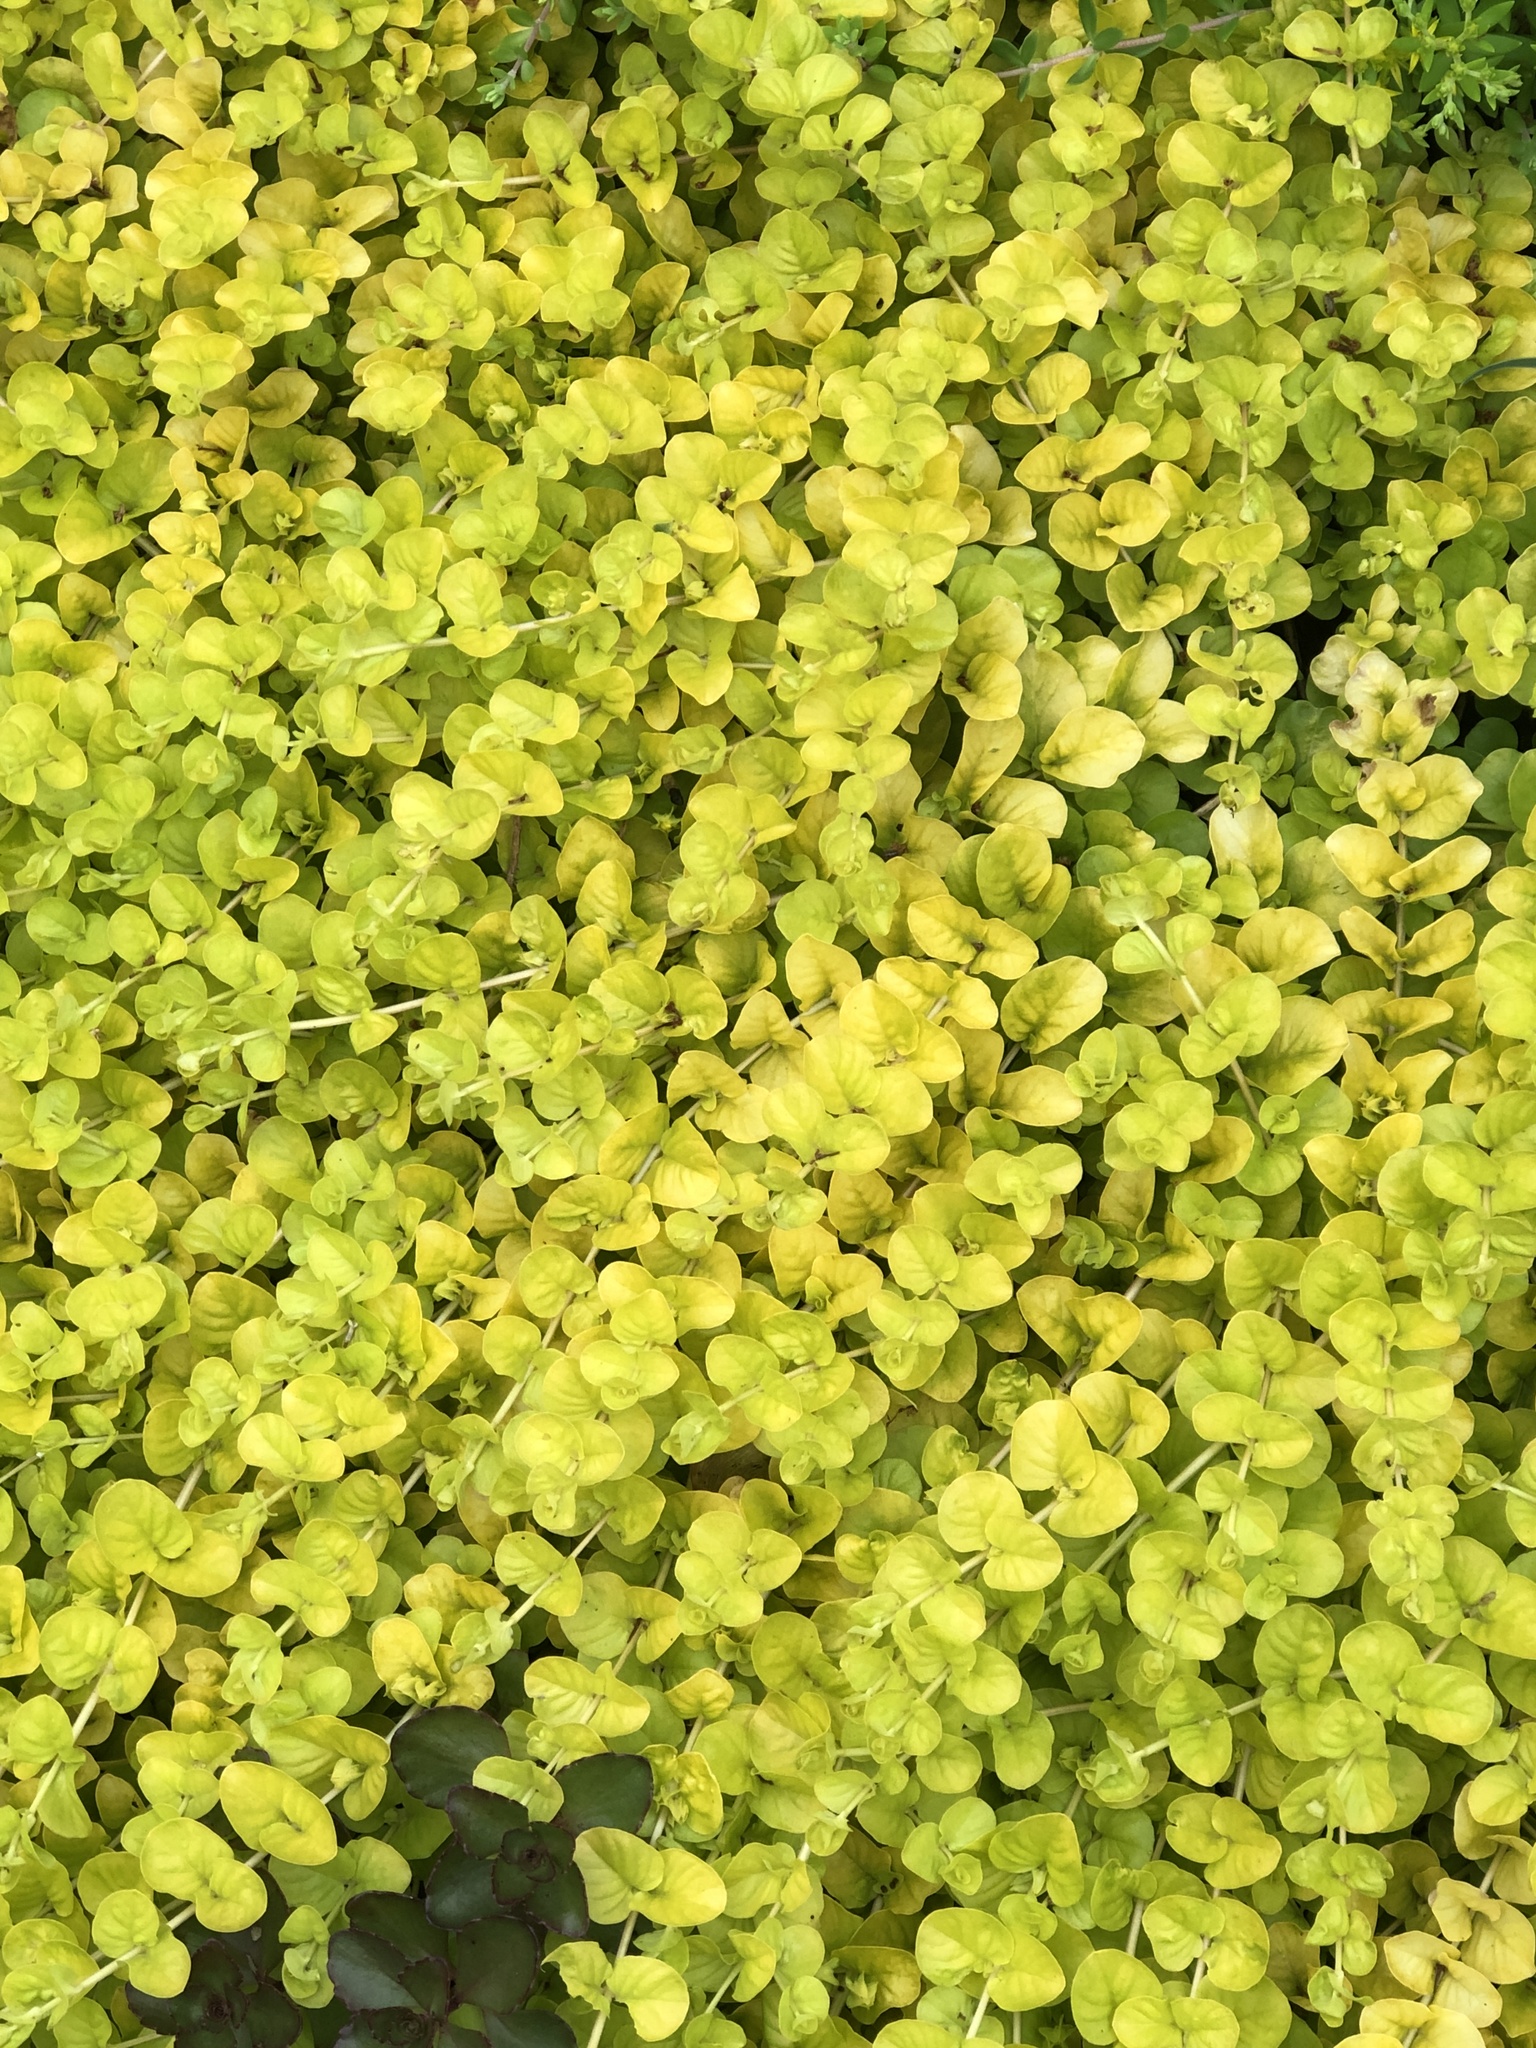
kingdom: Plantae
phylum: Tracheophyta
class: Magnoliopsida
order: Ericales
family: Primulaceae
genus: Lysimachia
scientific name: Lysimachia nummularia
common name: Moneywort
